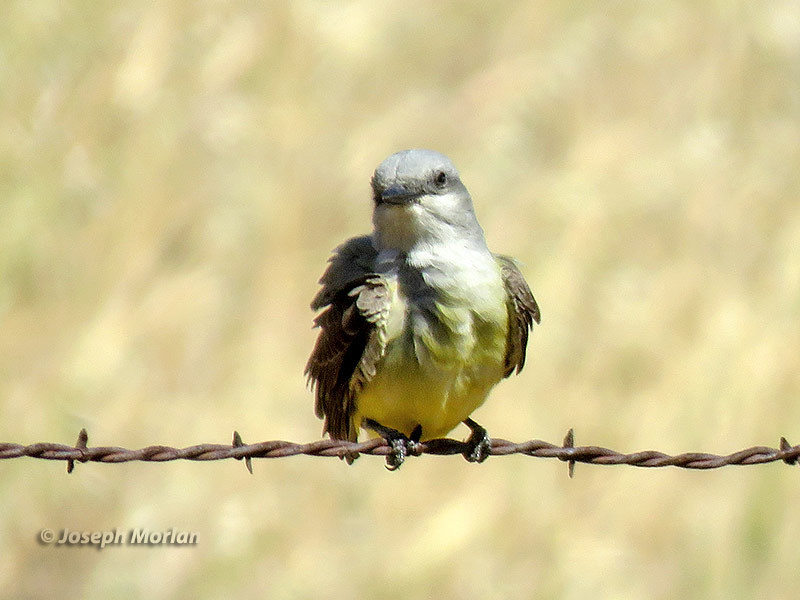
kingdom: Animalia
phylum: Chordata
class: Aves
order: Passeriformes
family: Tyrannidae
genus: Tyrannus
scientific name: Tyrannus verticalis
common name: Western kingbird
